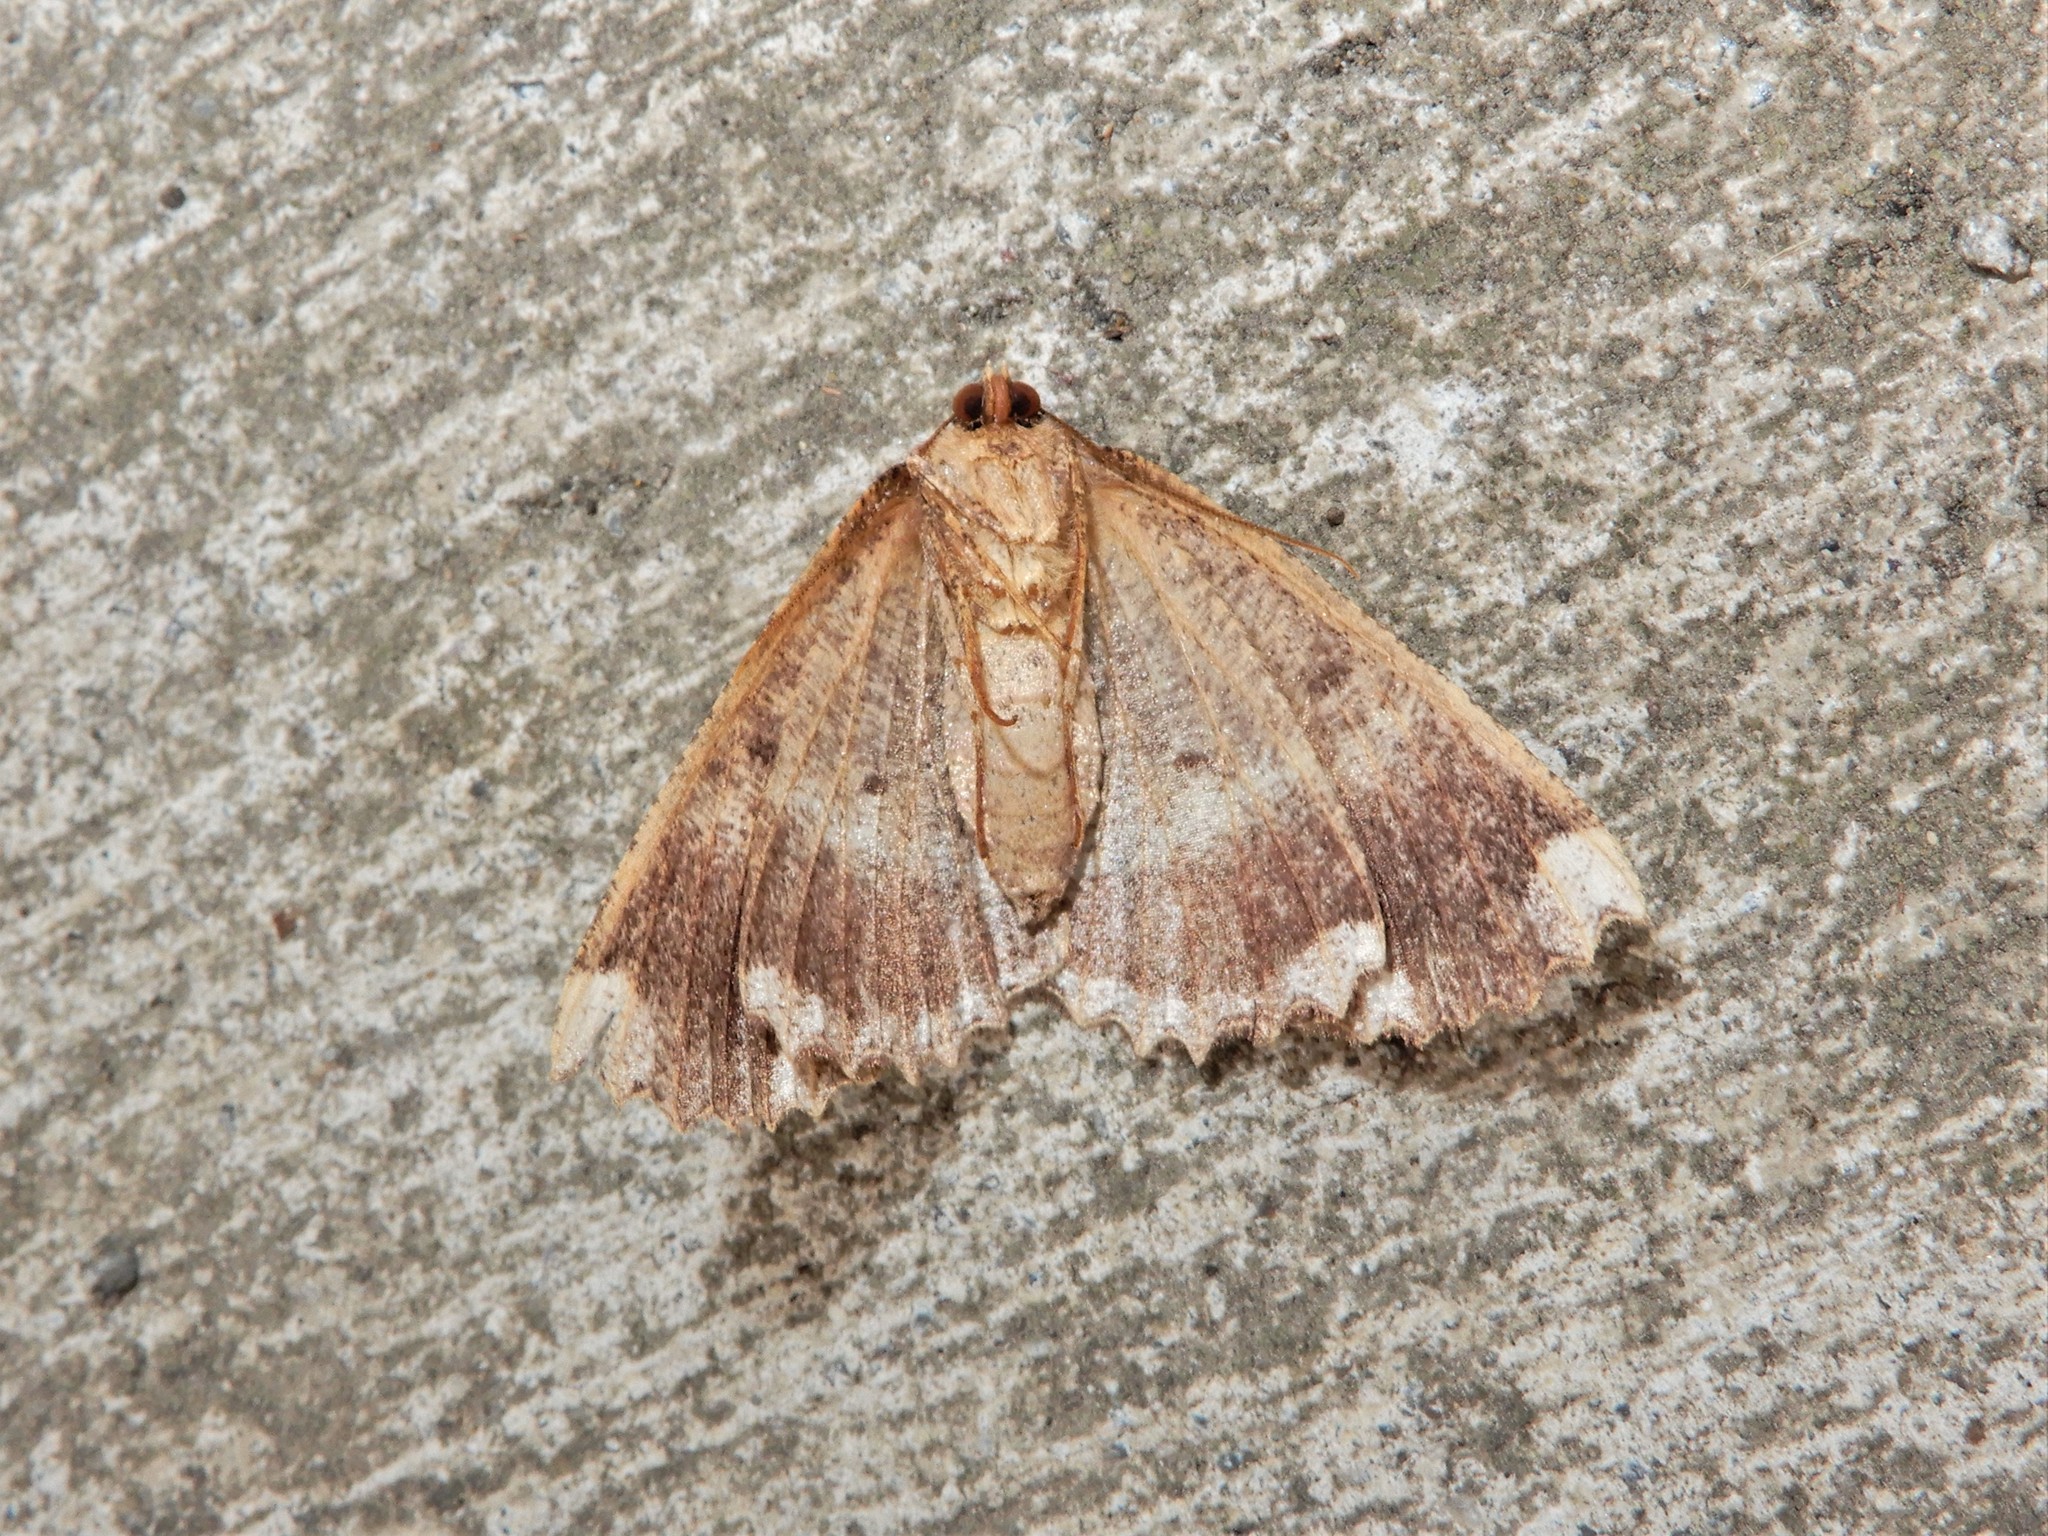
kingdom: Animalia
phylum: Arthropoda
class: Insecta
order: Lepidoptera
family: Geometridae
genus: Gellonia
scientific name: Gellonia dejectaria
